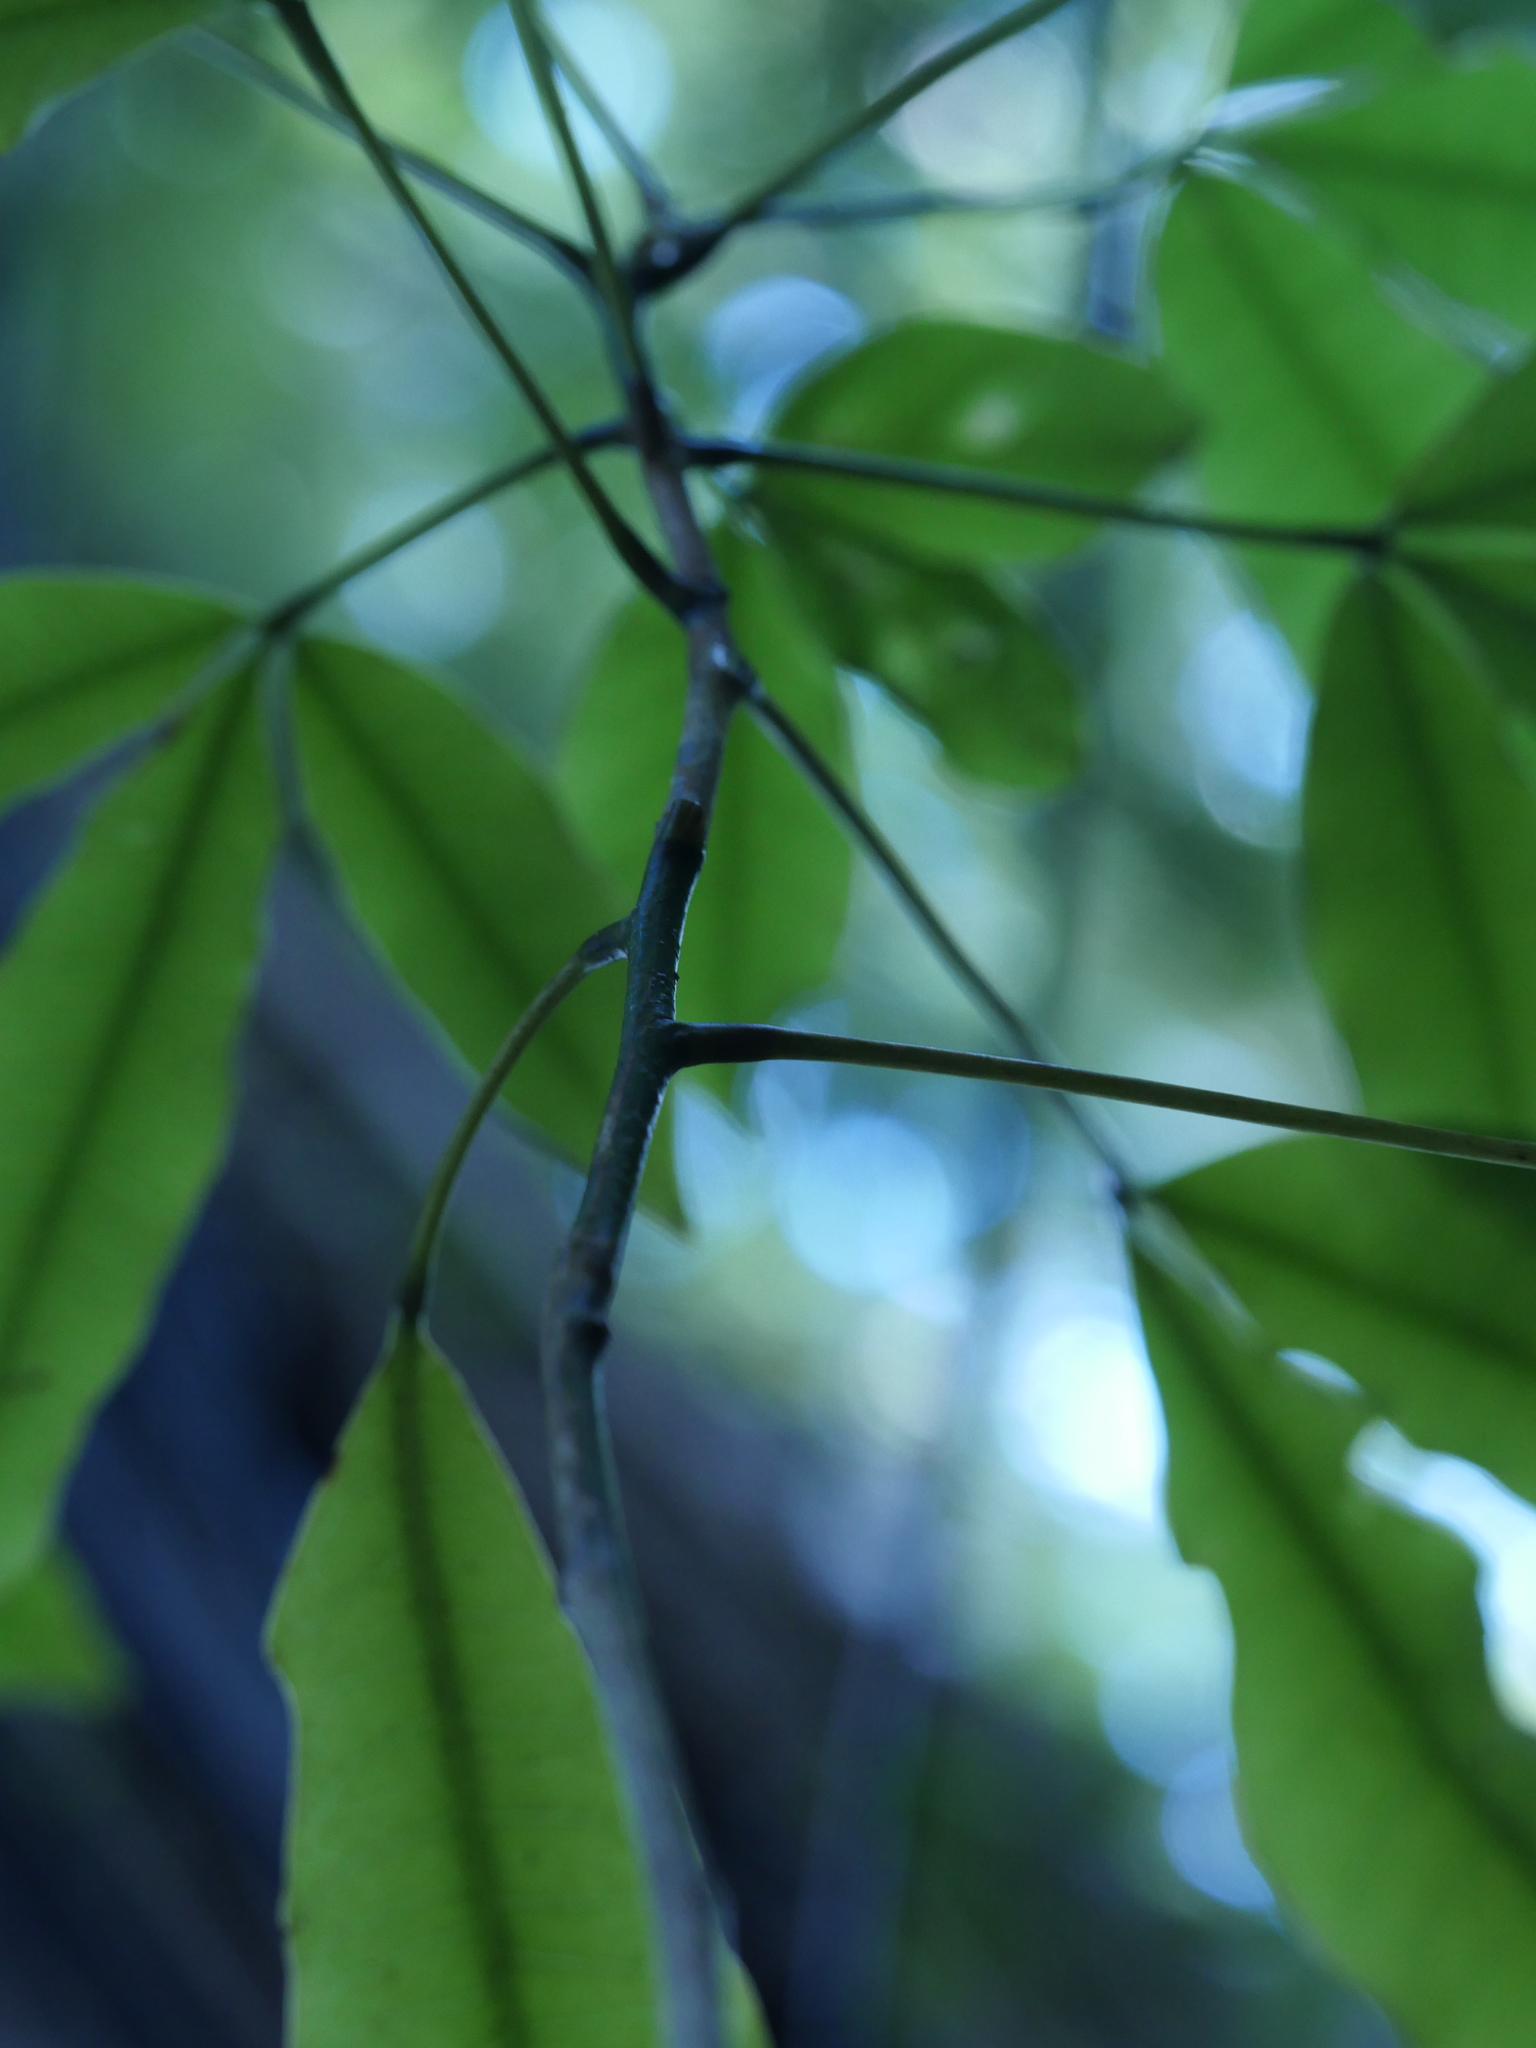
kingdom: Plantae
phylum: Tracheophyta
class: Magnoliopsida
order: Apiales
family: Araliaceae
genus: Raukaua
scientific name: Raukaua edgerleyi
